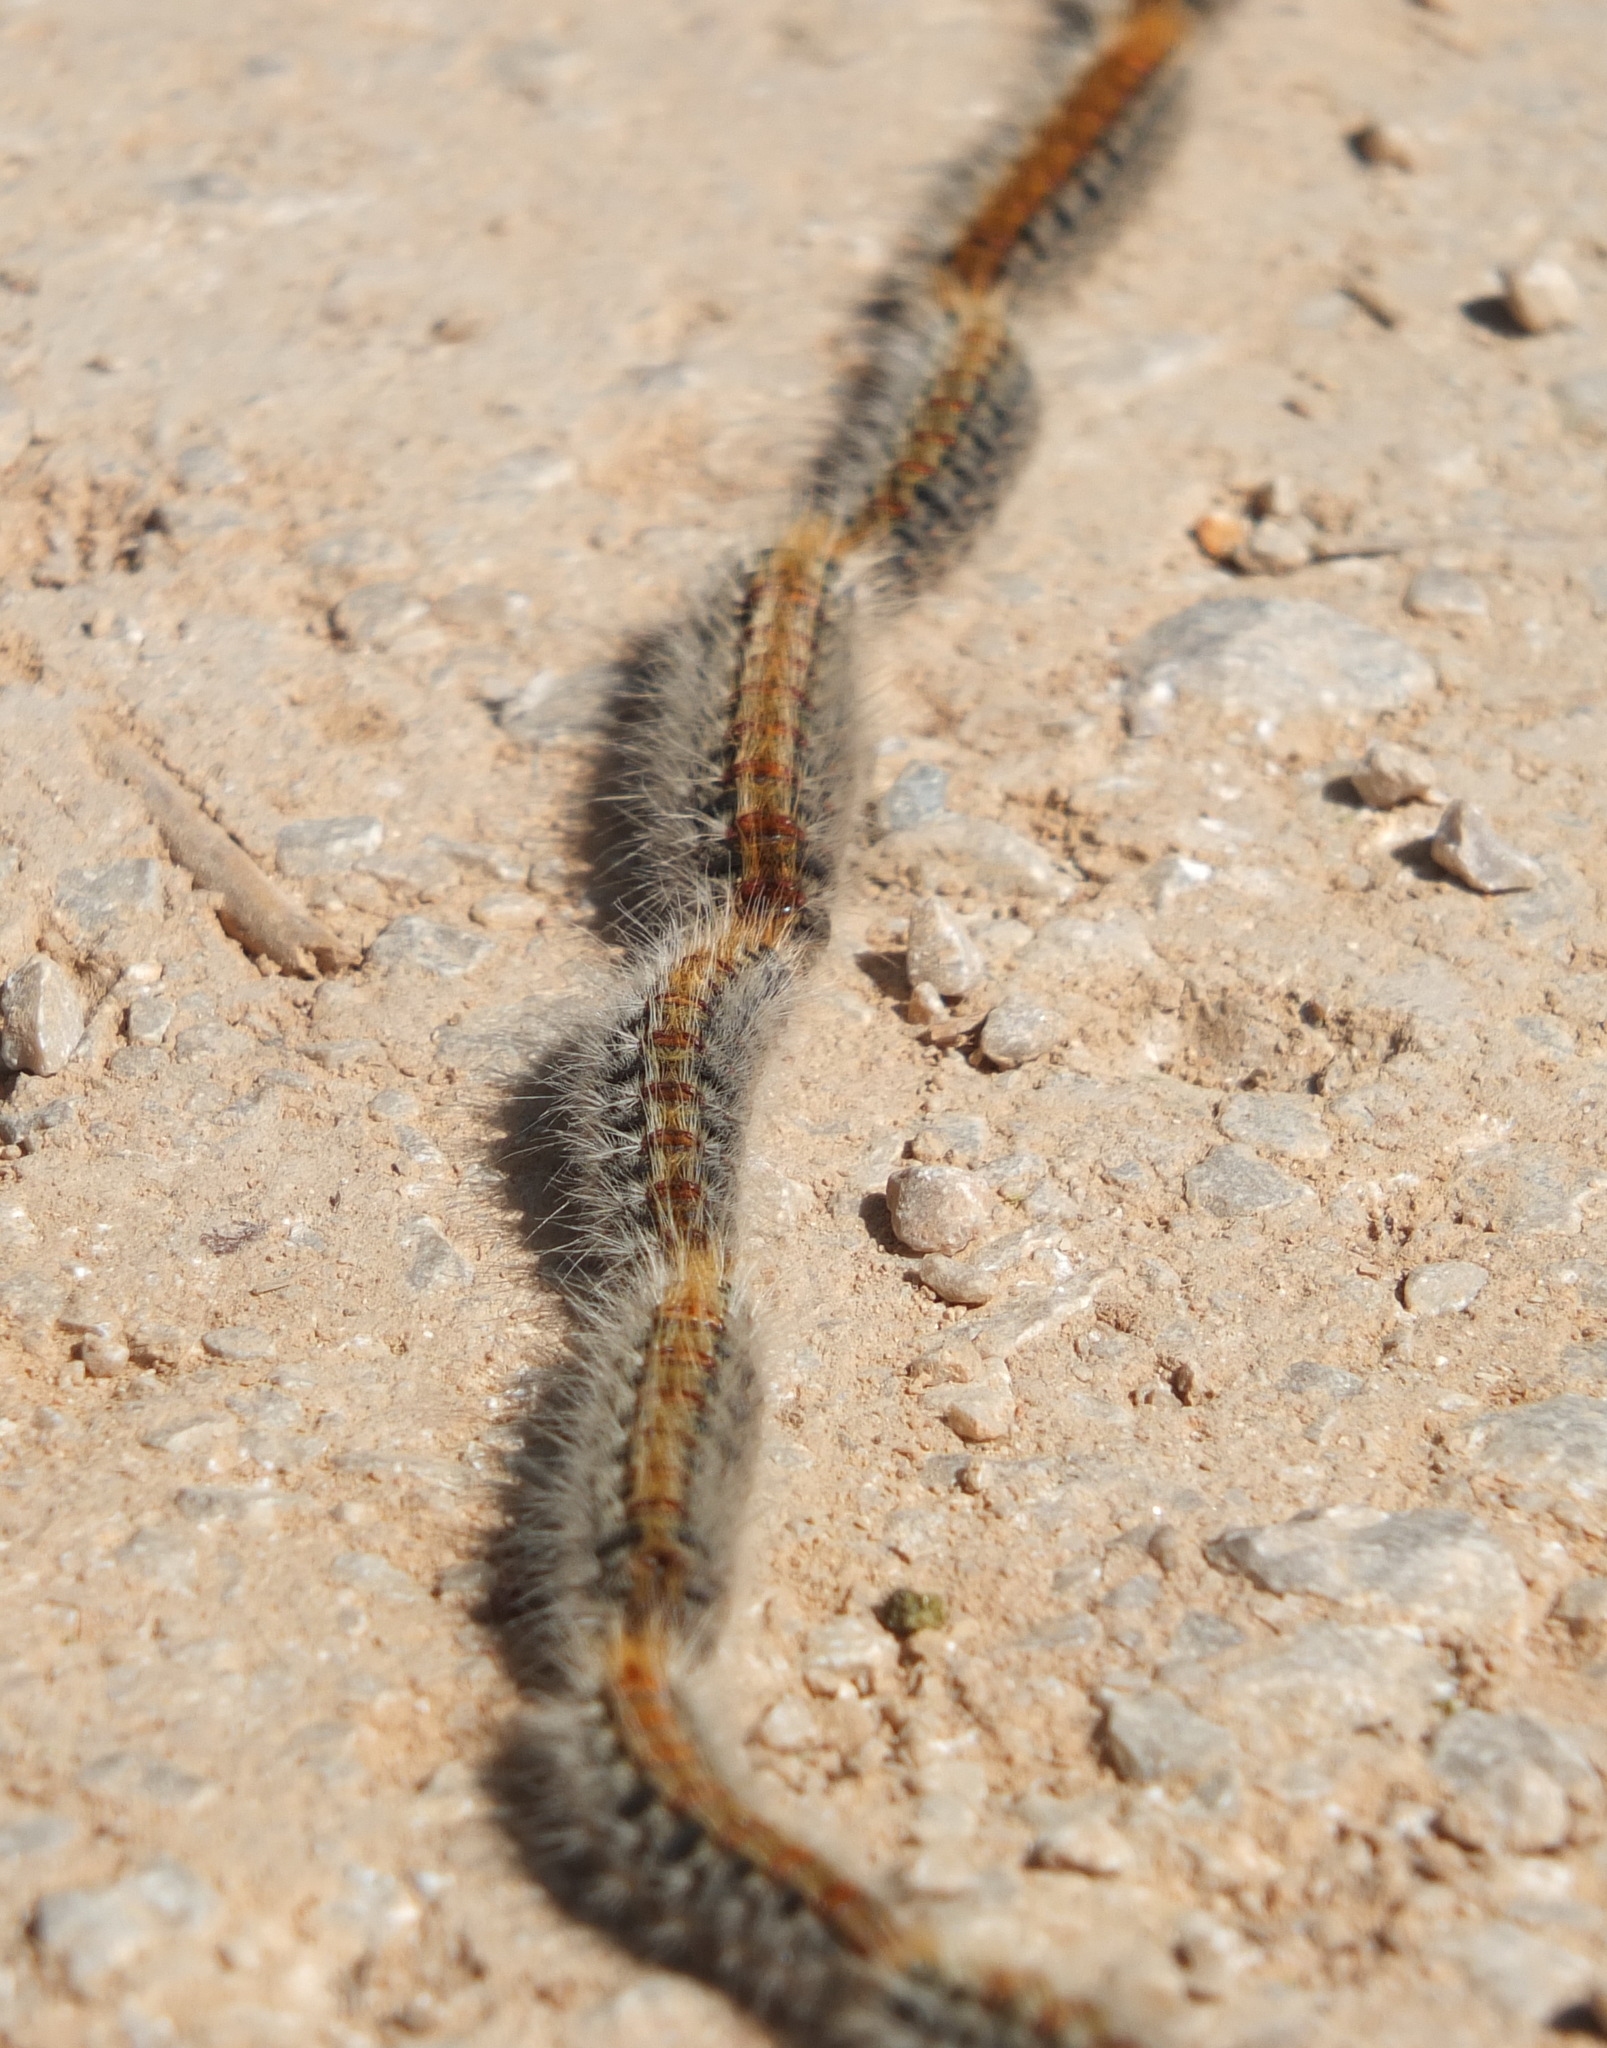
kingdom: Animalia
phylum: Arthropoda
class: Insecta
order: Lepidoptera
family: Notodontidae
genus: Thaumetopoea
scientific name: Thaumetopoea pityocampa
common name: Pine processionary
